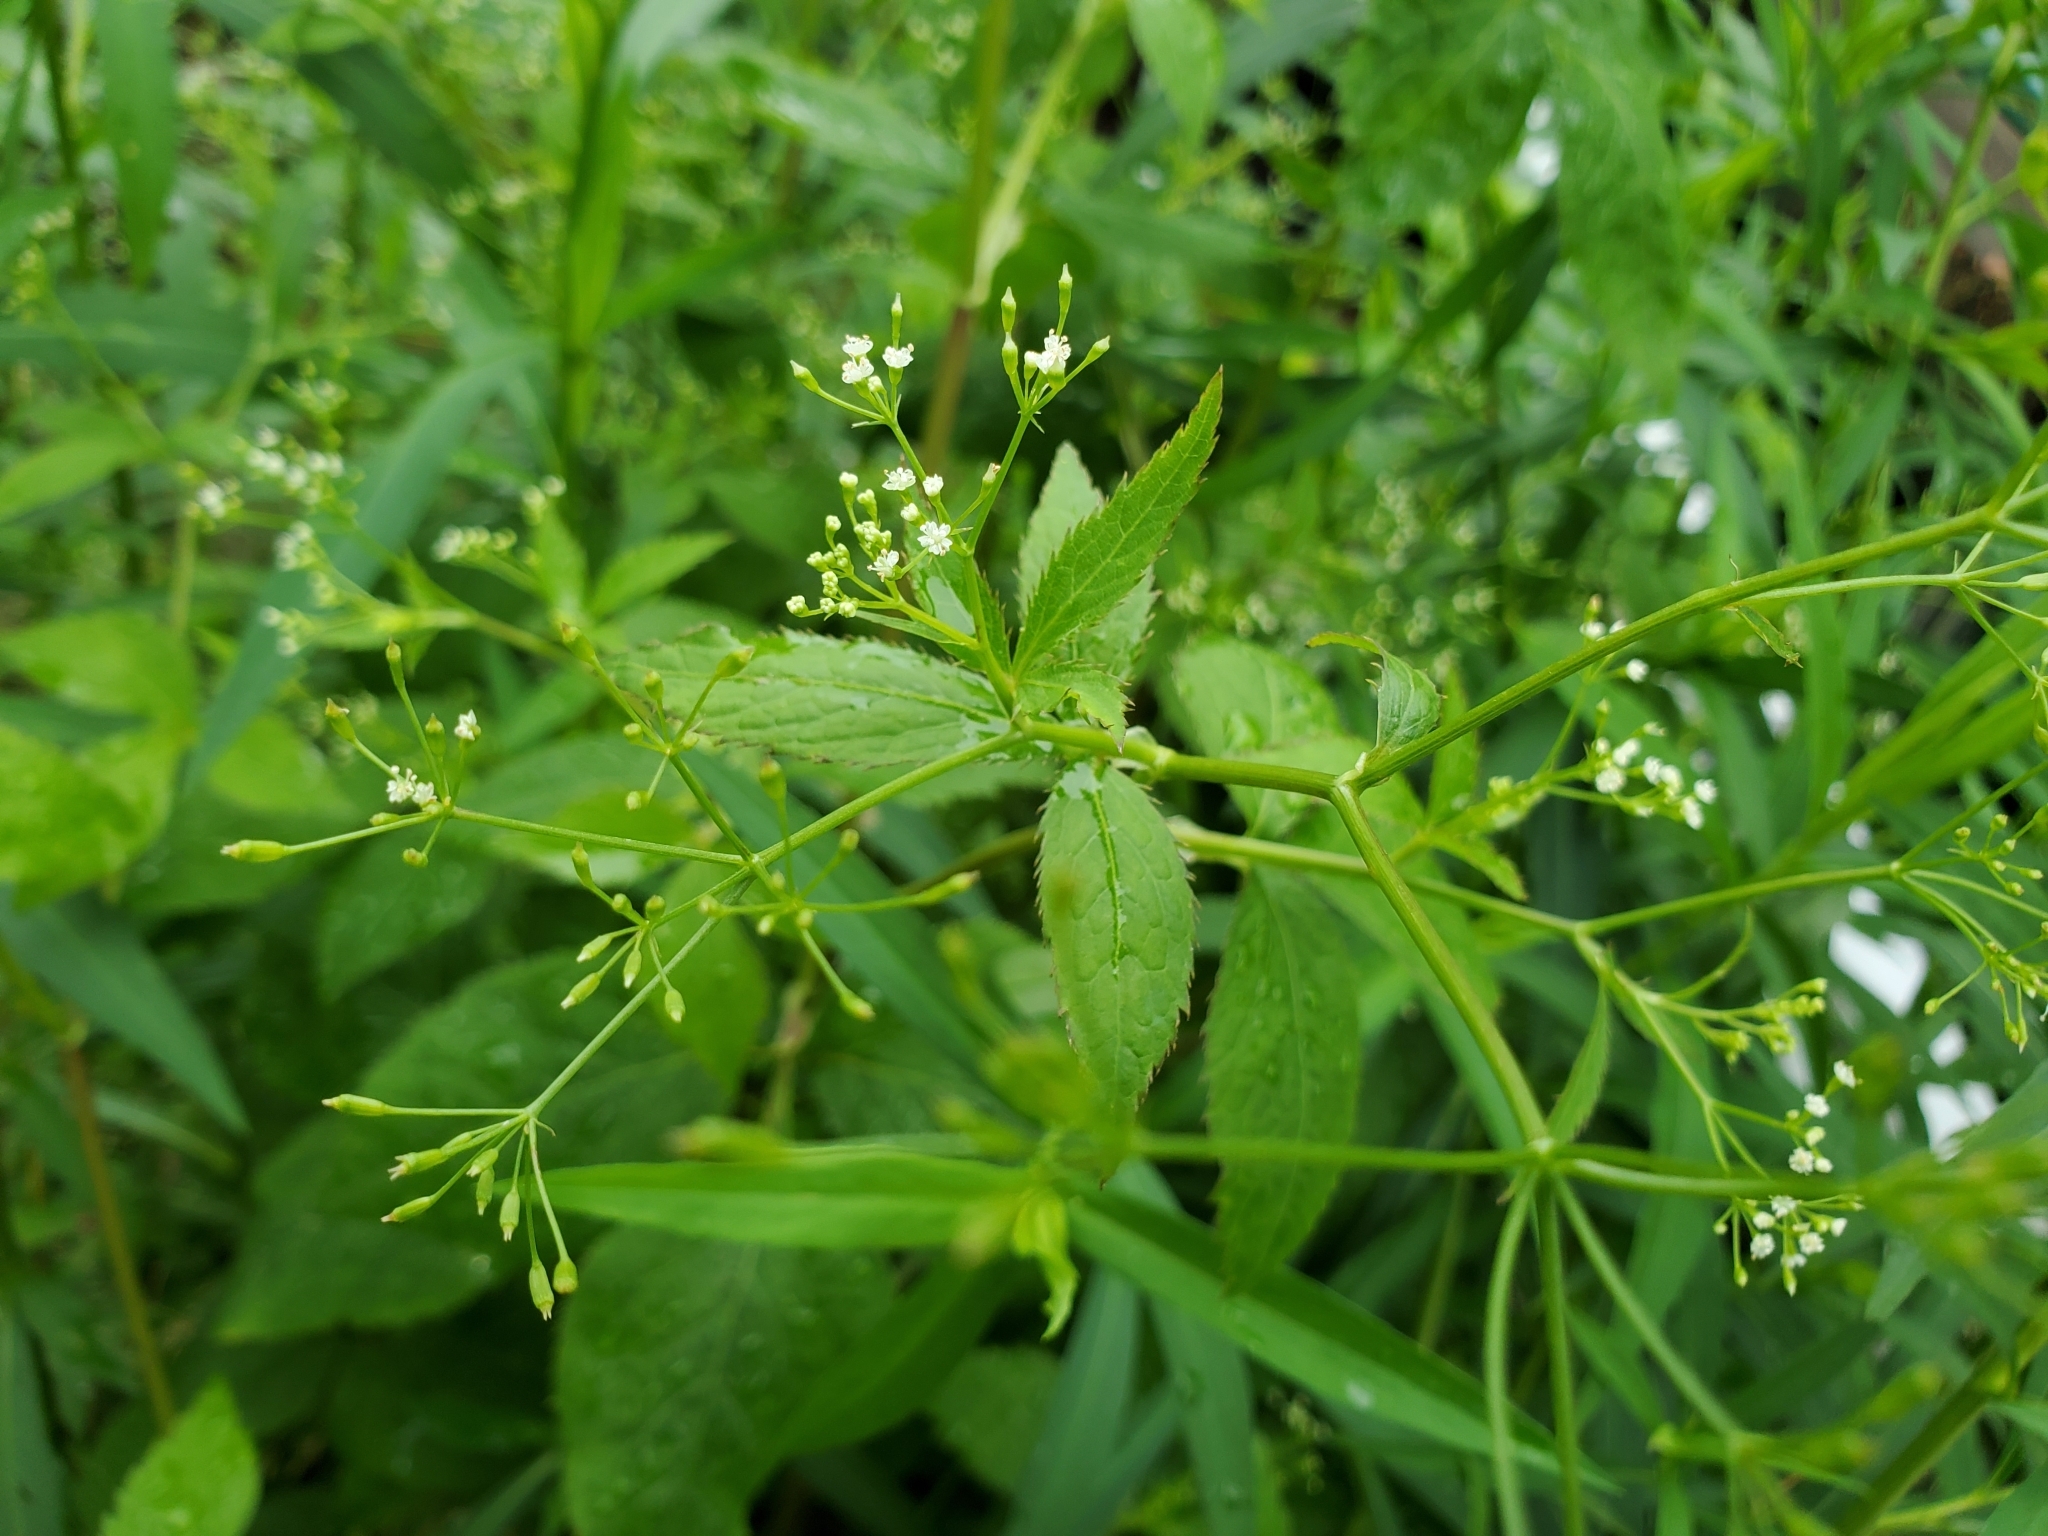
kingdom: Plantae
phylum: Tracheophyta
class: Magnoliopsida
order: Apiales
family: Apiaceae
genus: Cryptotaenia
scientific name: Cryptotaenia canadensis
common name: Honewort
